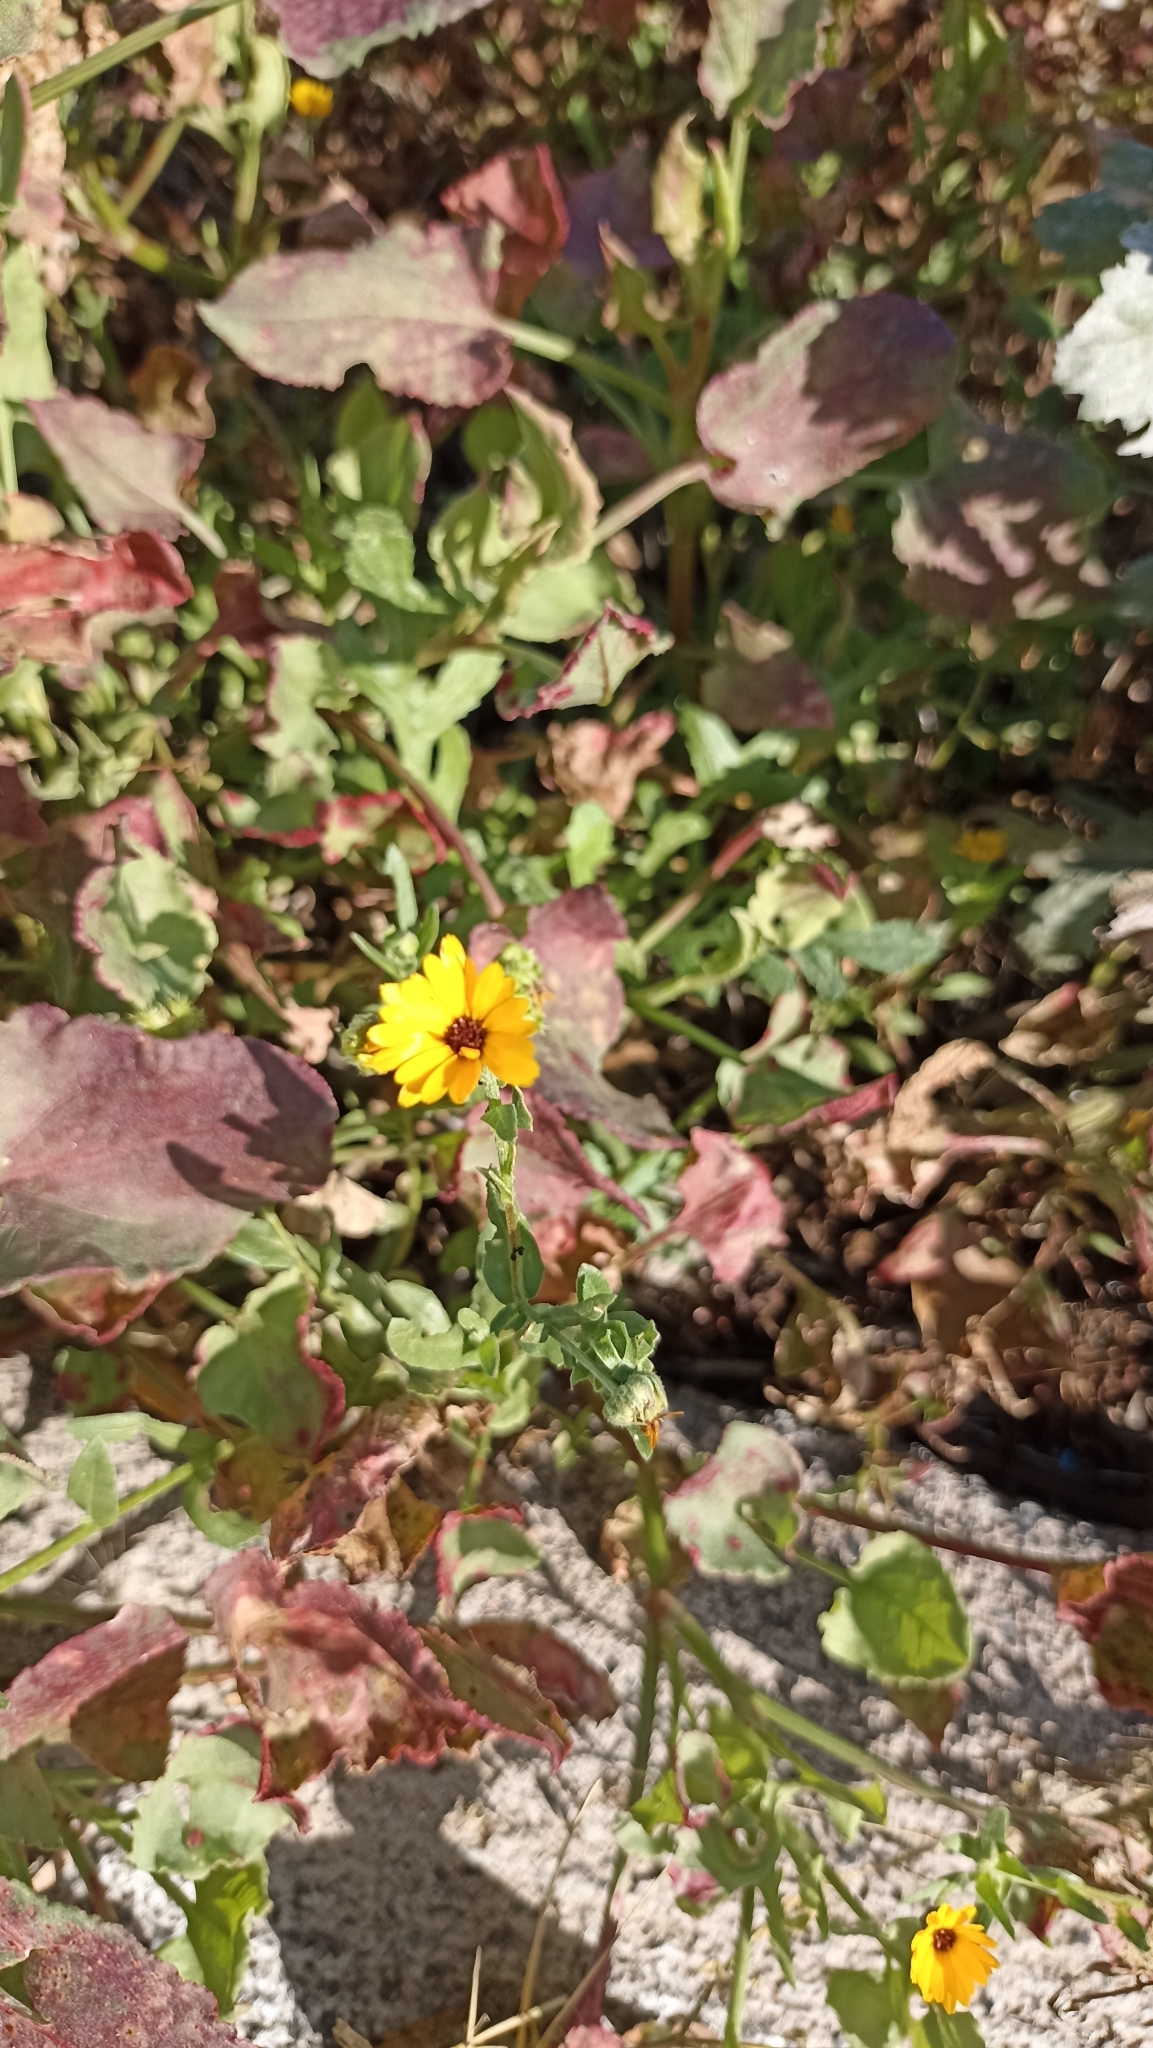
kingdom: Plantae
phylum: Tracheophyta
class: Magnoliopsida
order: Asterales
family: Asteraceae
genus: Calendula
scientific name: Calendula arvensis
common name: Field marigold
